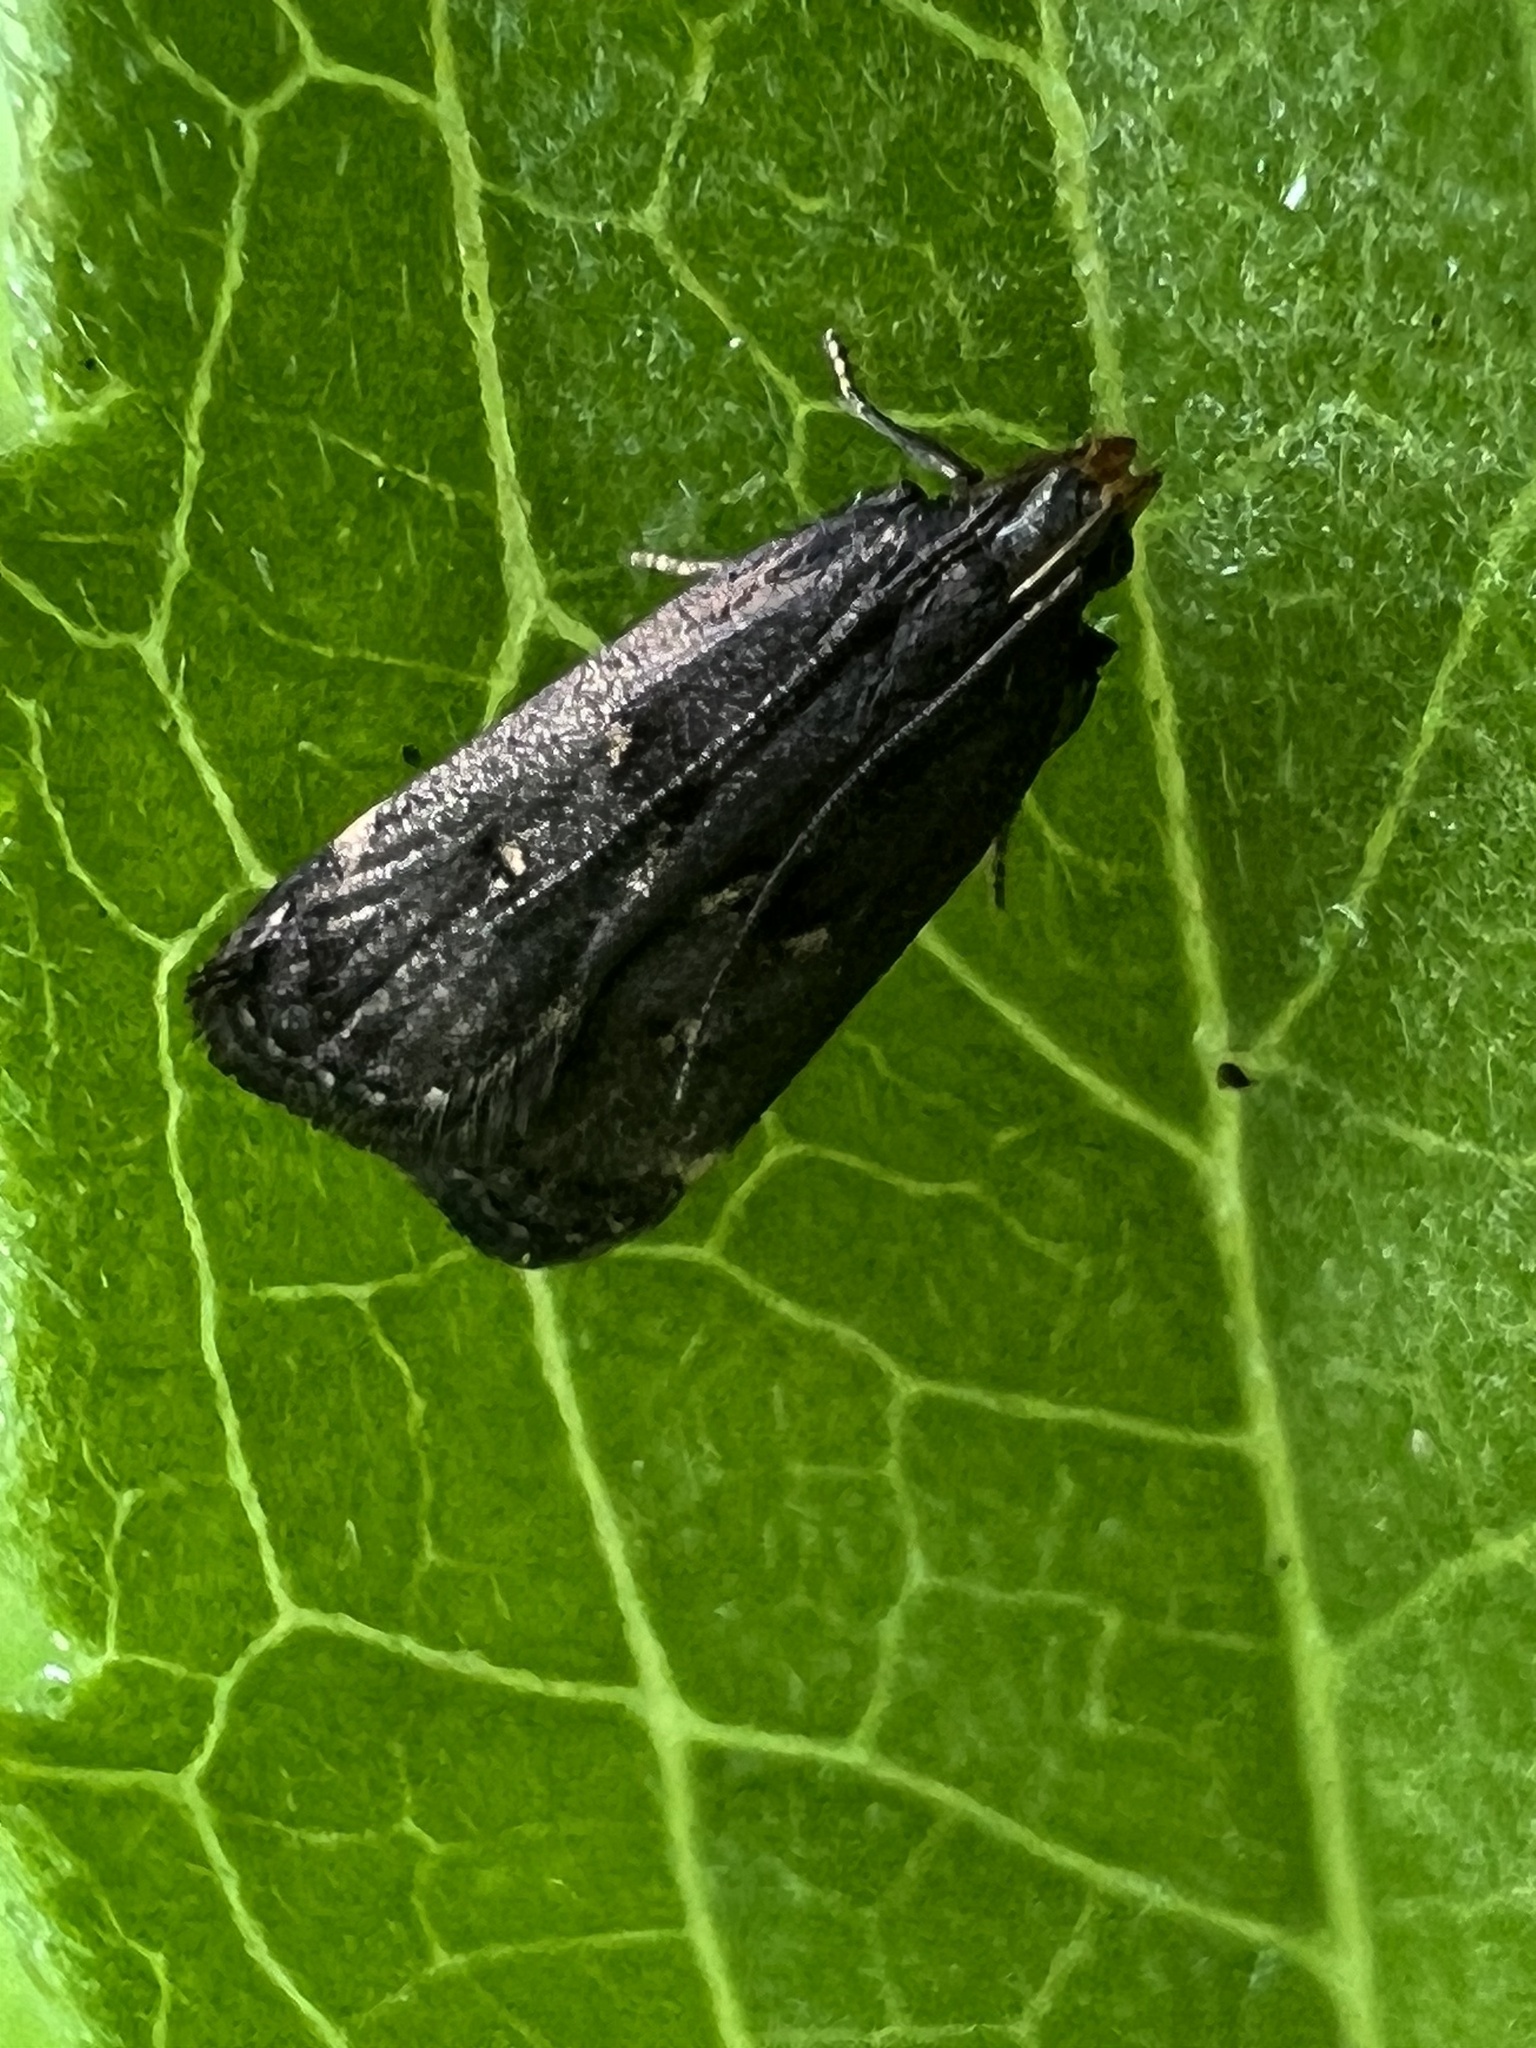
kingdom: Animalia
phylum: Arthropoda
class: Insecta
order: Lepidoptera
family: Gelechiidae
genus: Dichomeris
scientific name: Dichomeris juncidella
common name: Orange-dotted dichomeris moth
